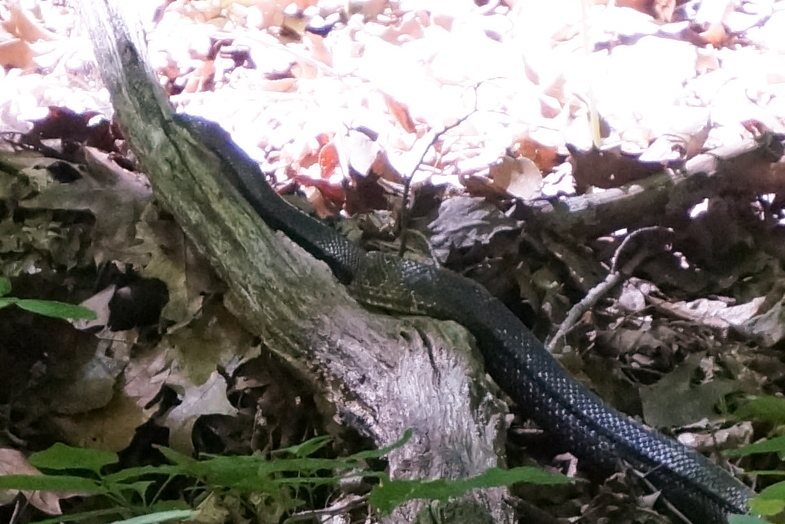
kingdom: Animalia
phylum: Chordata
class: Squamata
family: Colubridae
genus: Pantherophis
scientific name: Pantherophis spiloides
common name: Gray rat snake
